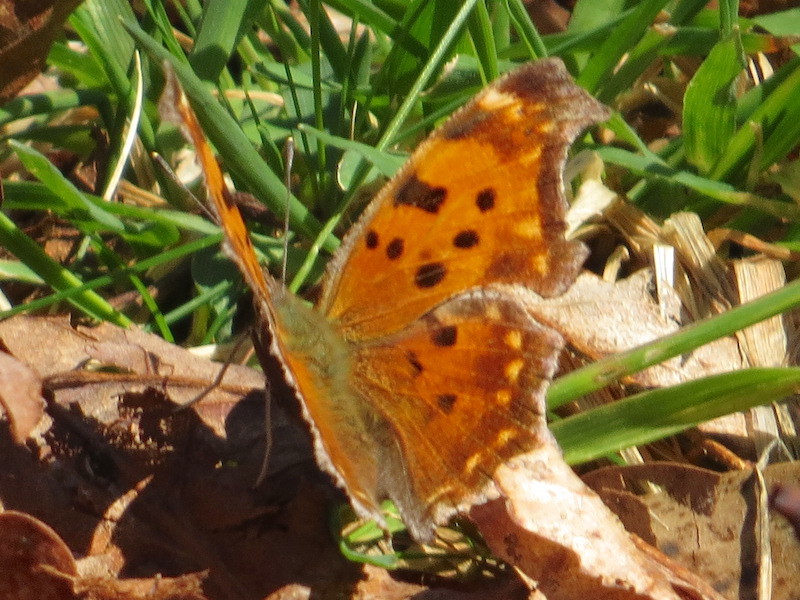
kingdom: Animalia
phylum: Arthropoda
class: Insecta
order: Lepidoptera
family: Nymphalidae
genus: Polygonia
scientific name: Polygonia comma
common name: Eastern comma
